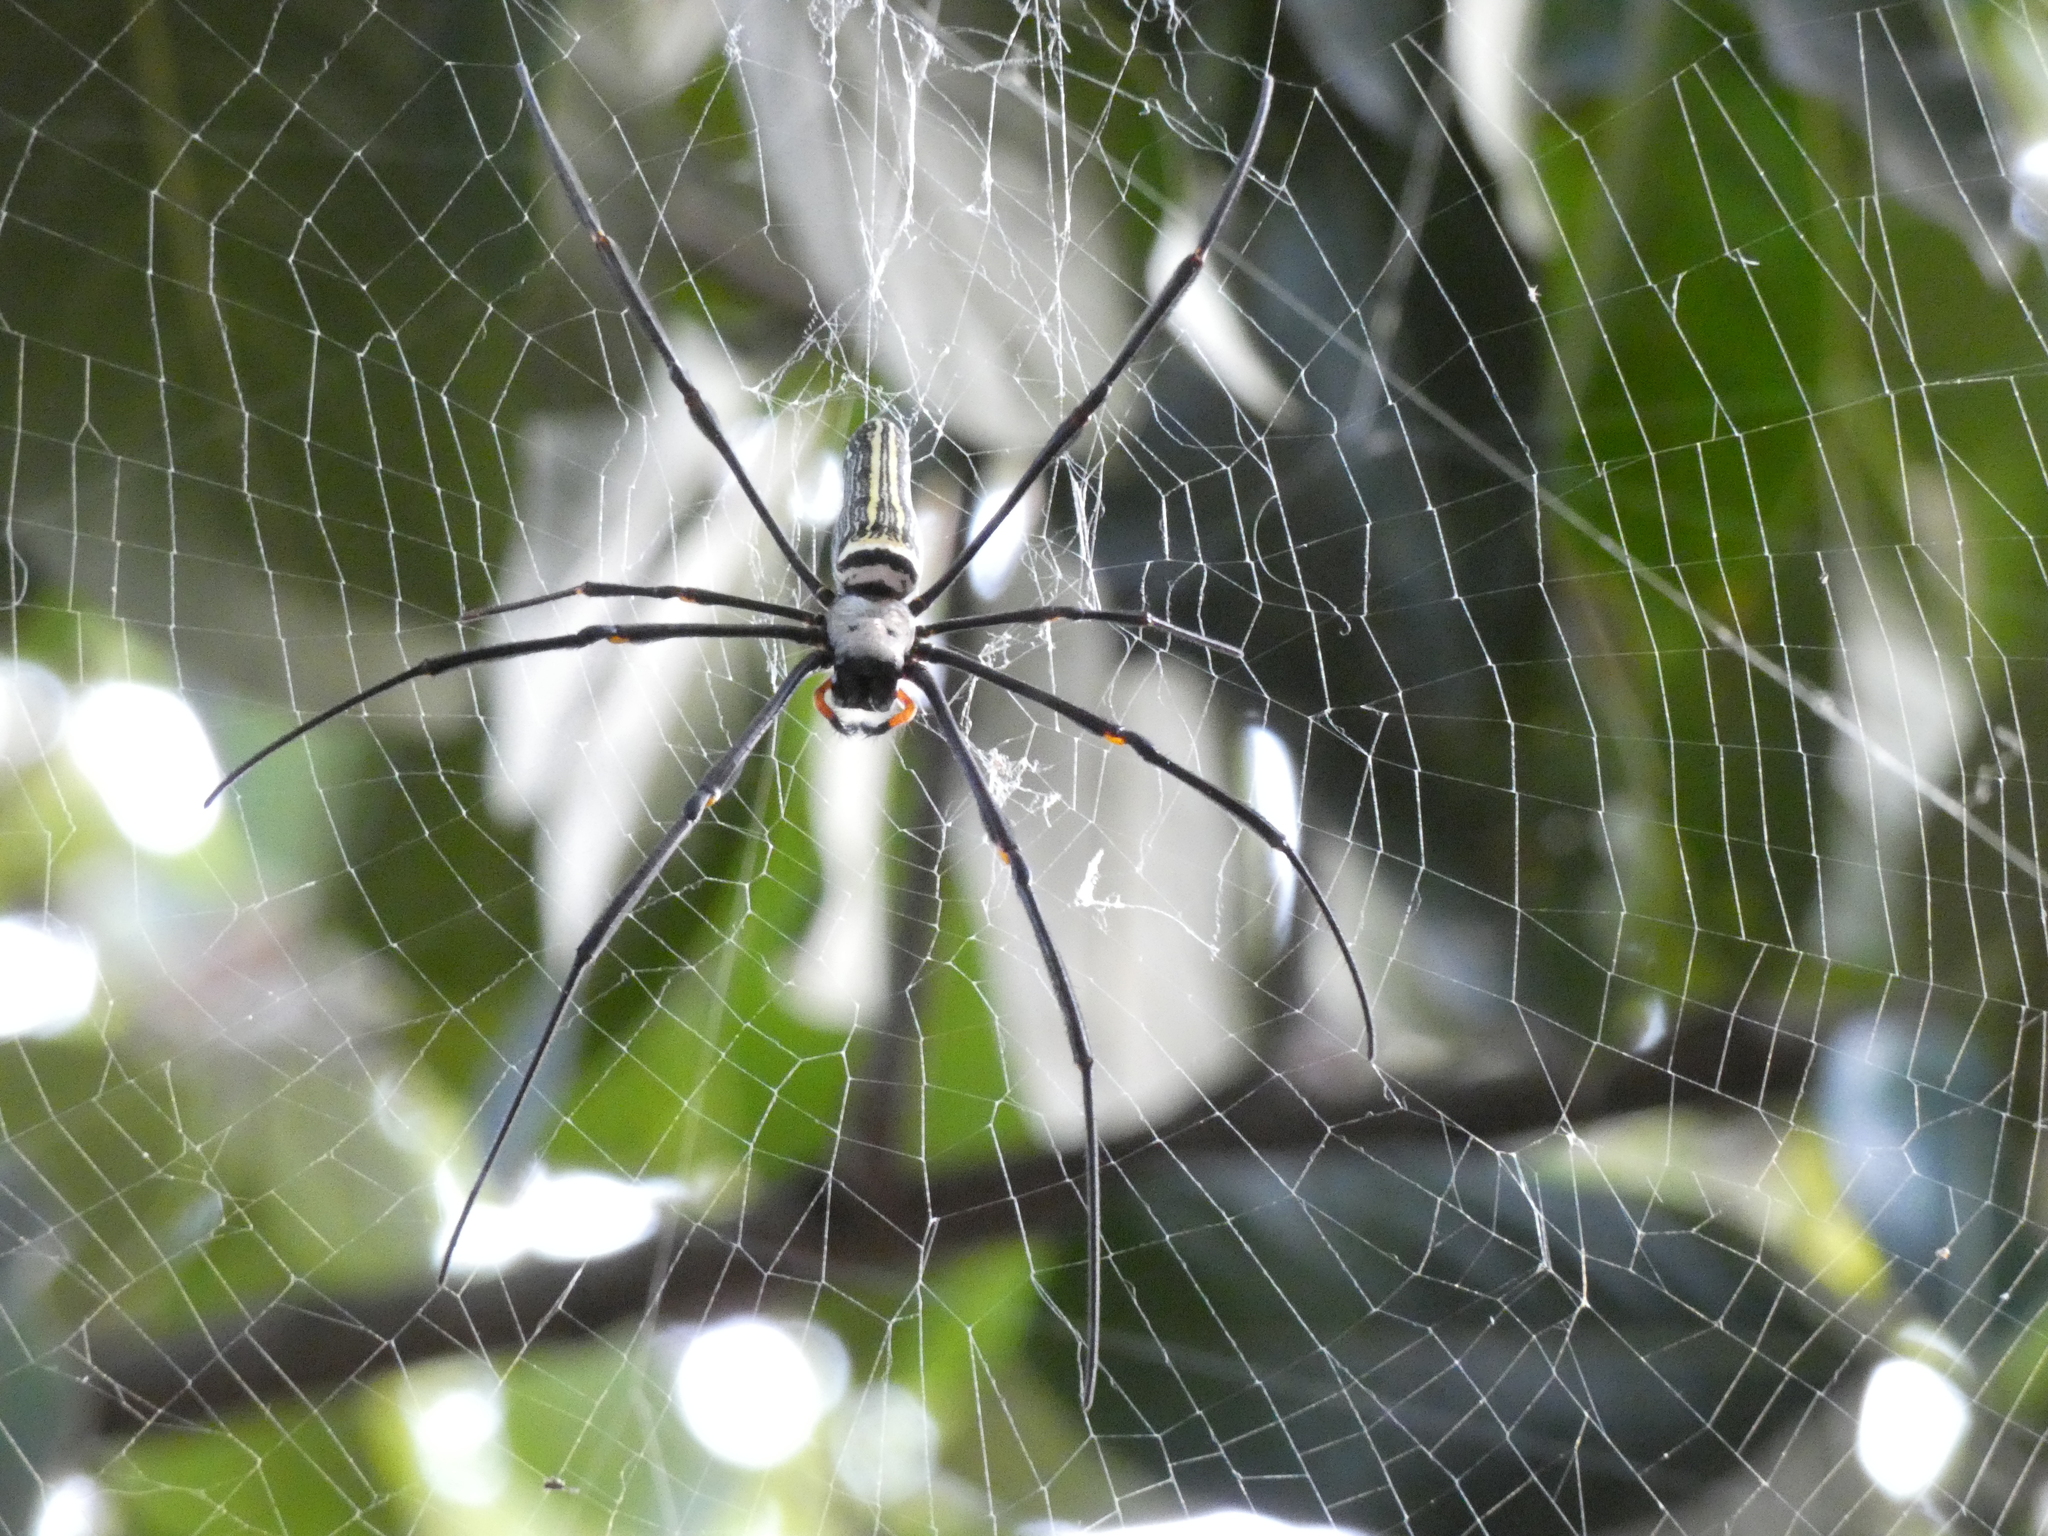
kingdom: Animalia
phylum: Arthropoda
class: Arachnida
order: Araneae
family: Araneidae
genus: Nephila
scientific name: Nephila pilipes
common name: Giant golden orb weaver
